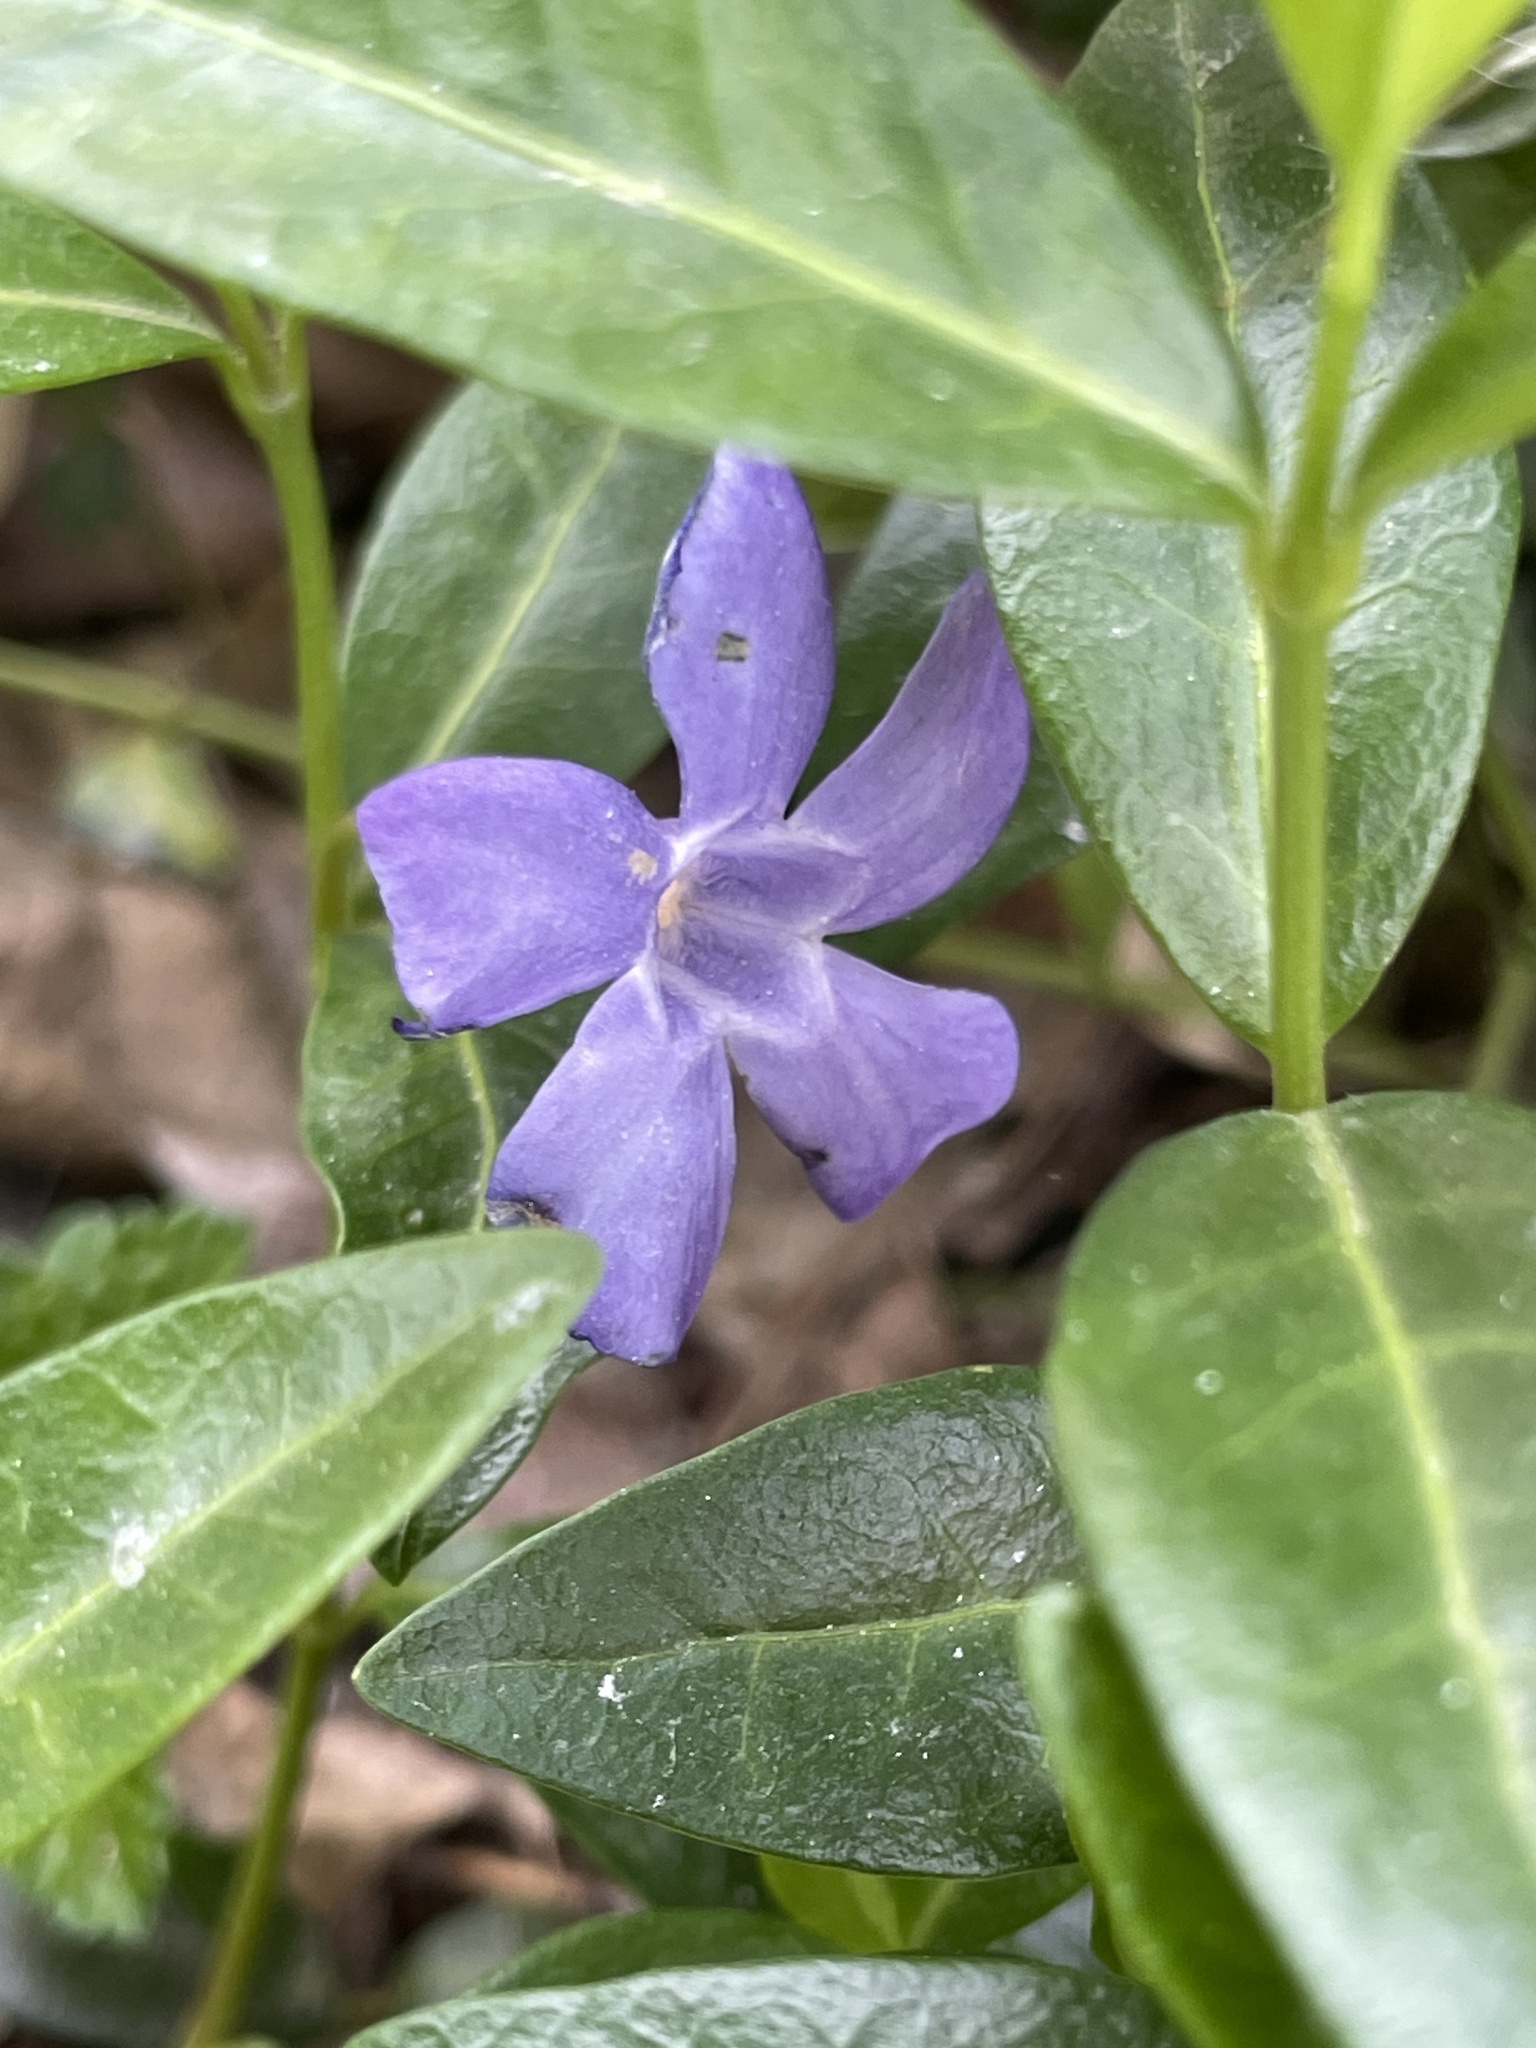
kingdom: Plantae
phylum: Tracheophyta
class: Magnoliopsida
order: Gentianales
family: Apocynaceae
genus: Vinca
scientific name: Vinca minor
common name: Lesser periwinkle
